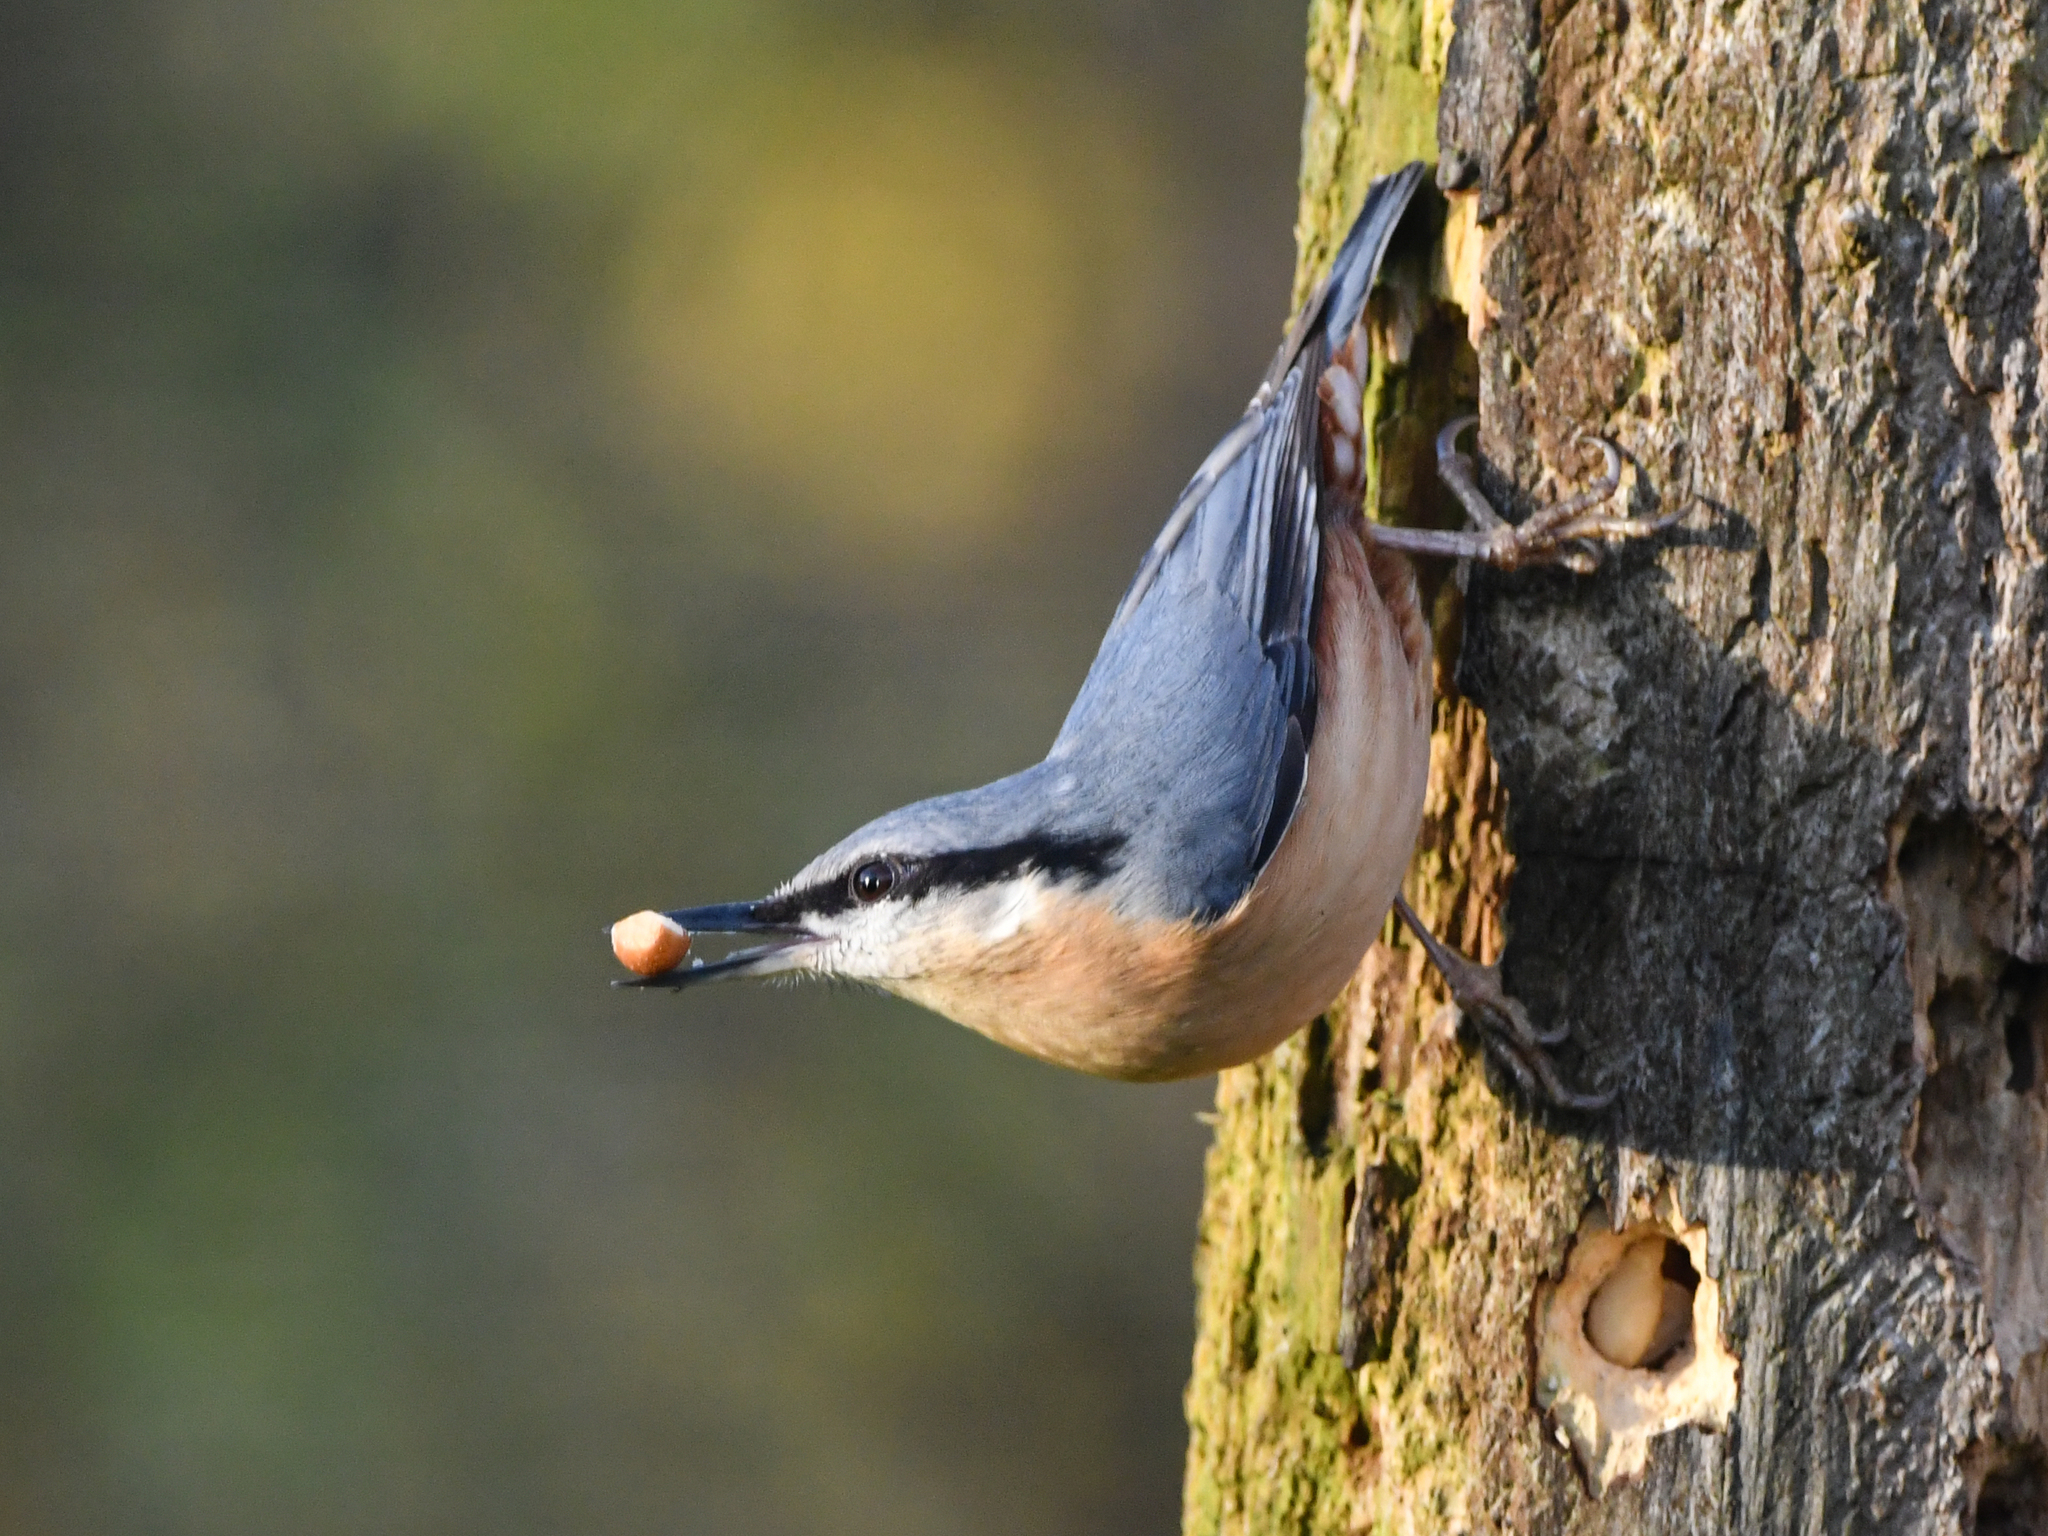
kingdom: Animalia
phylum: Chordata
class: Aves
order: Passeriformes
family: Sittidae
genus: Sitta
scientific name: Sitta europaea
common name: Eurasian nuthatch
